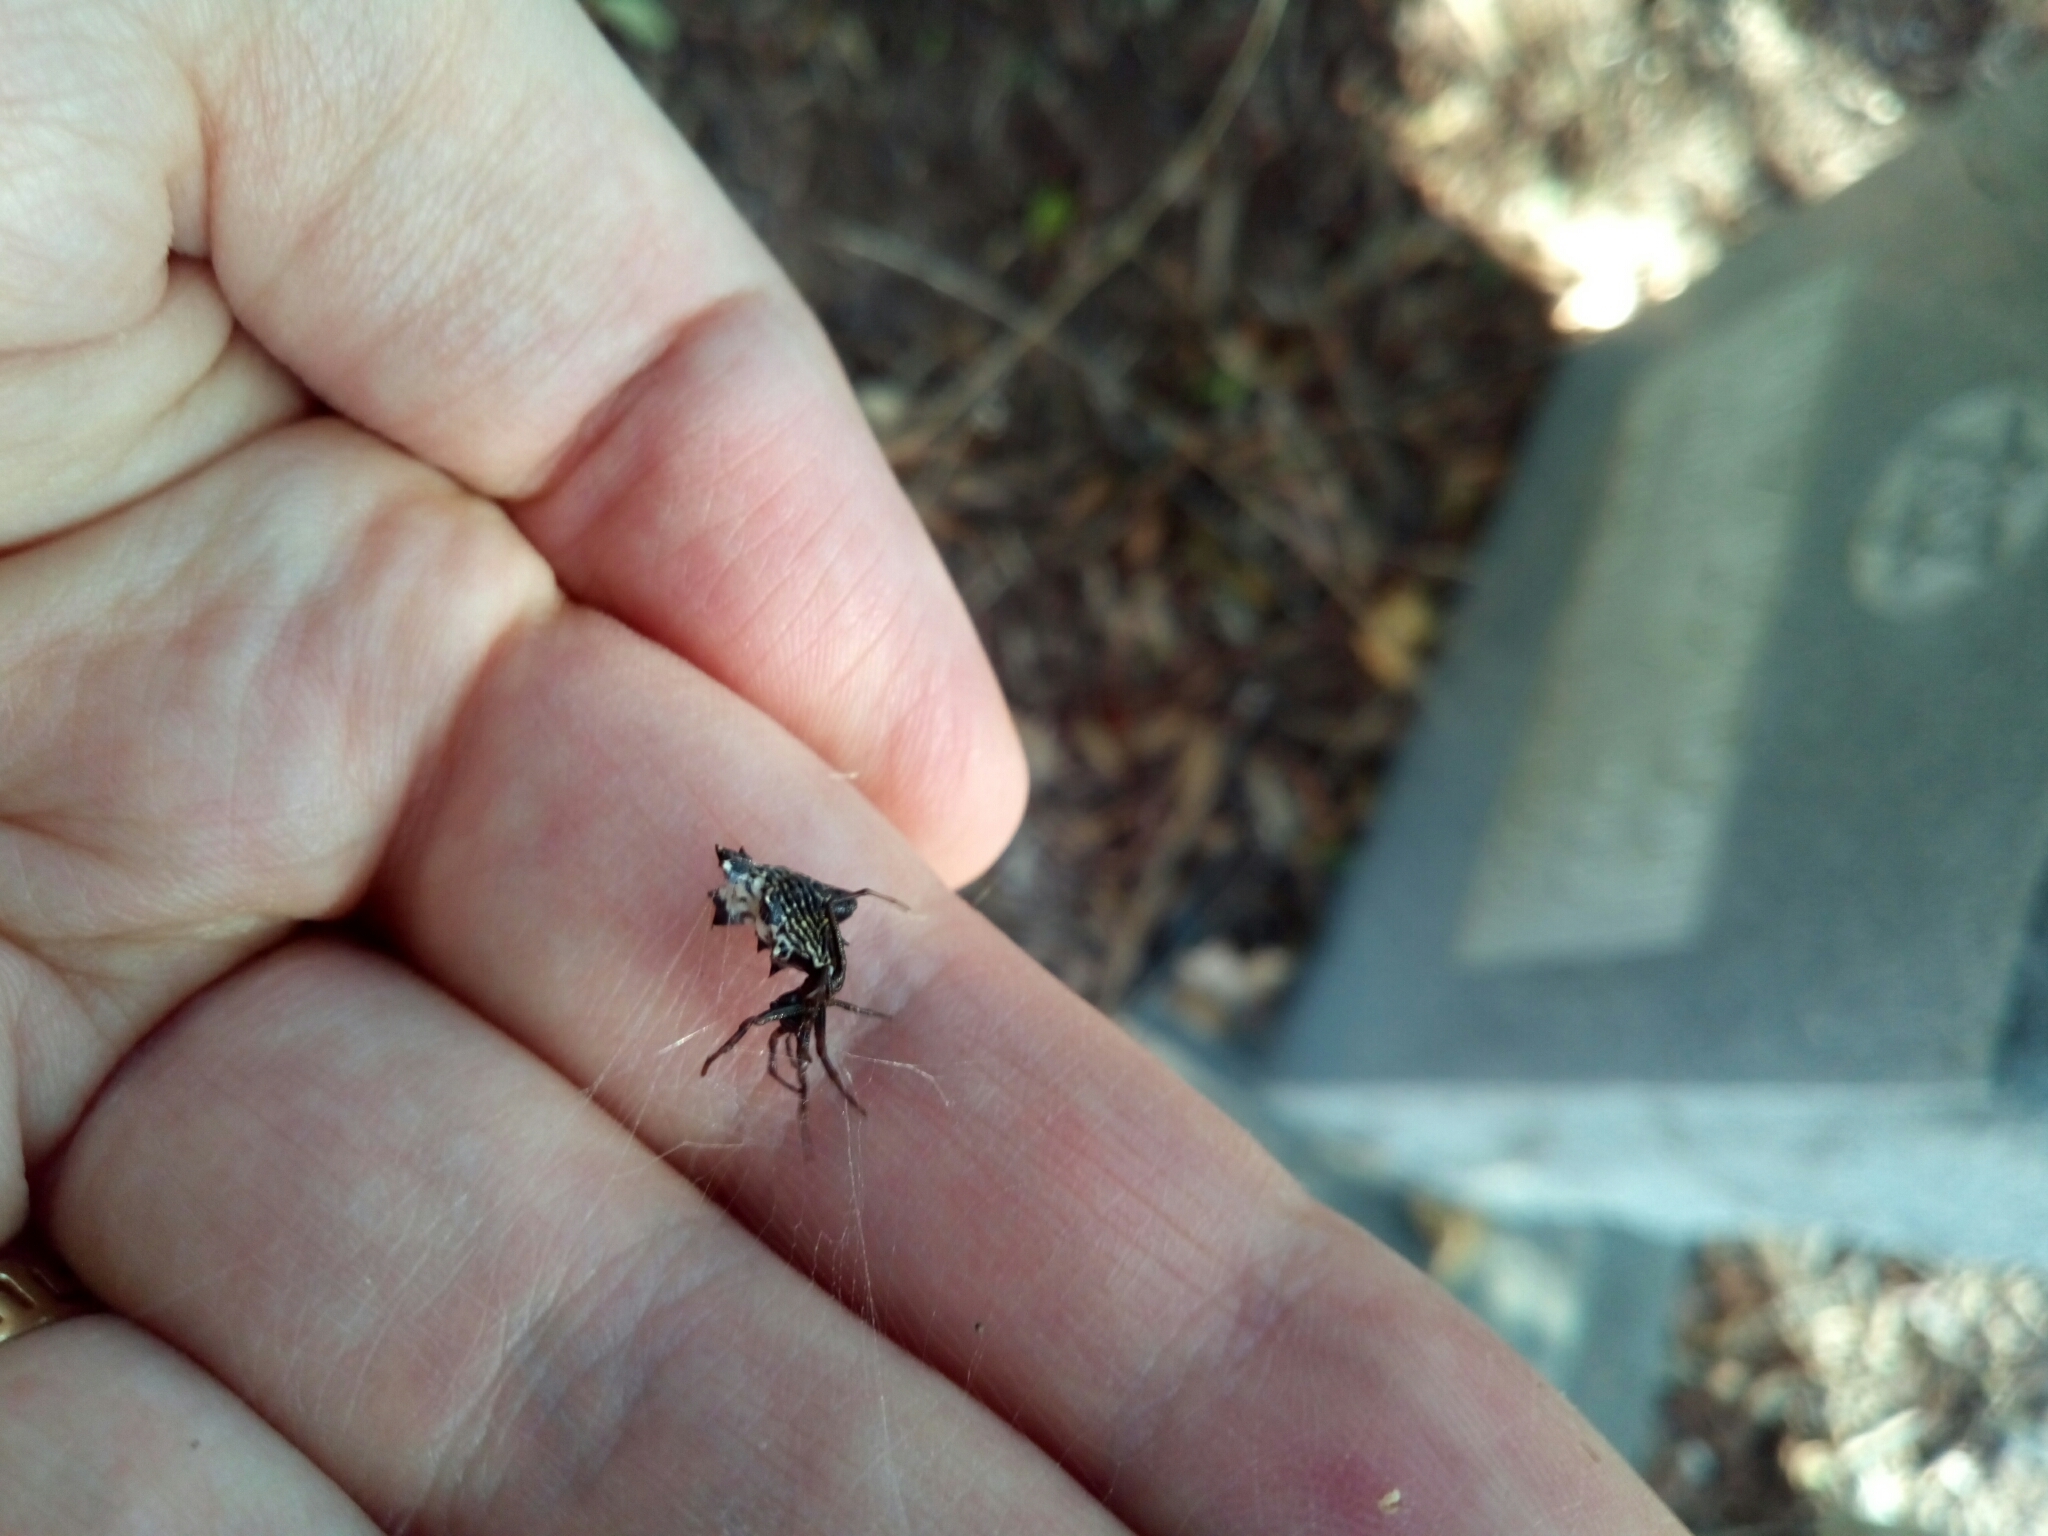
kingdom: Animalia
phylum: Arthropoda
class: Arachnida
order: Araneae
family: Araneidae
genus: Micrathena
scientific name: Micrathena gracilis
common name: Orb weavers
